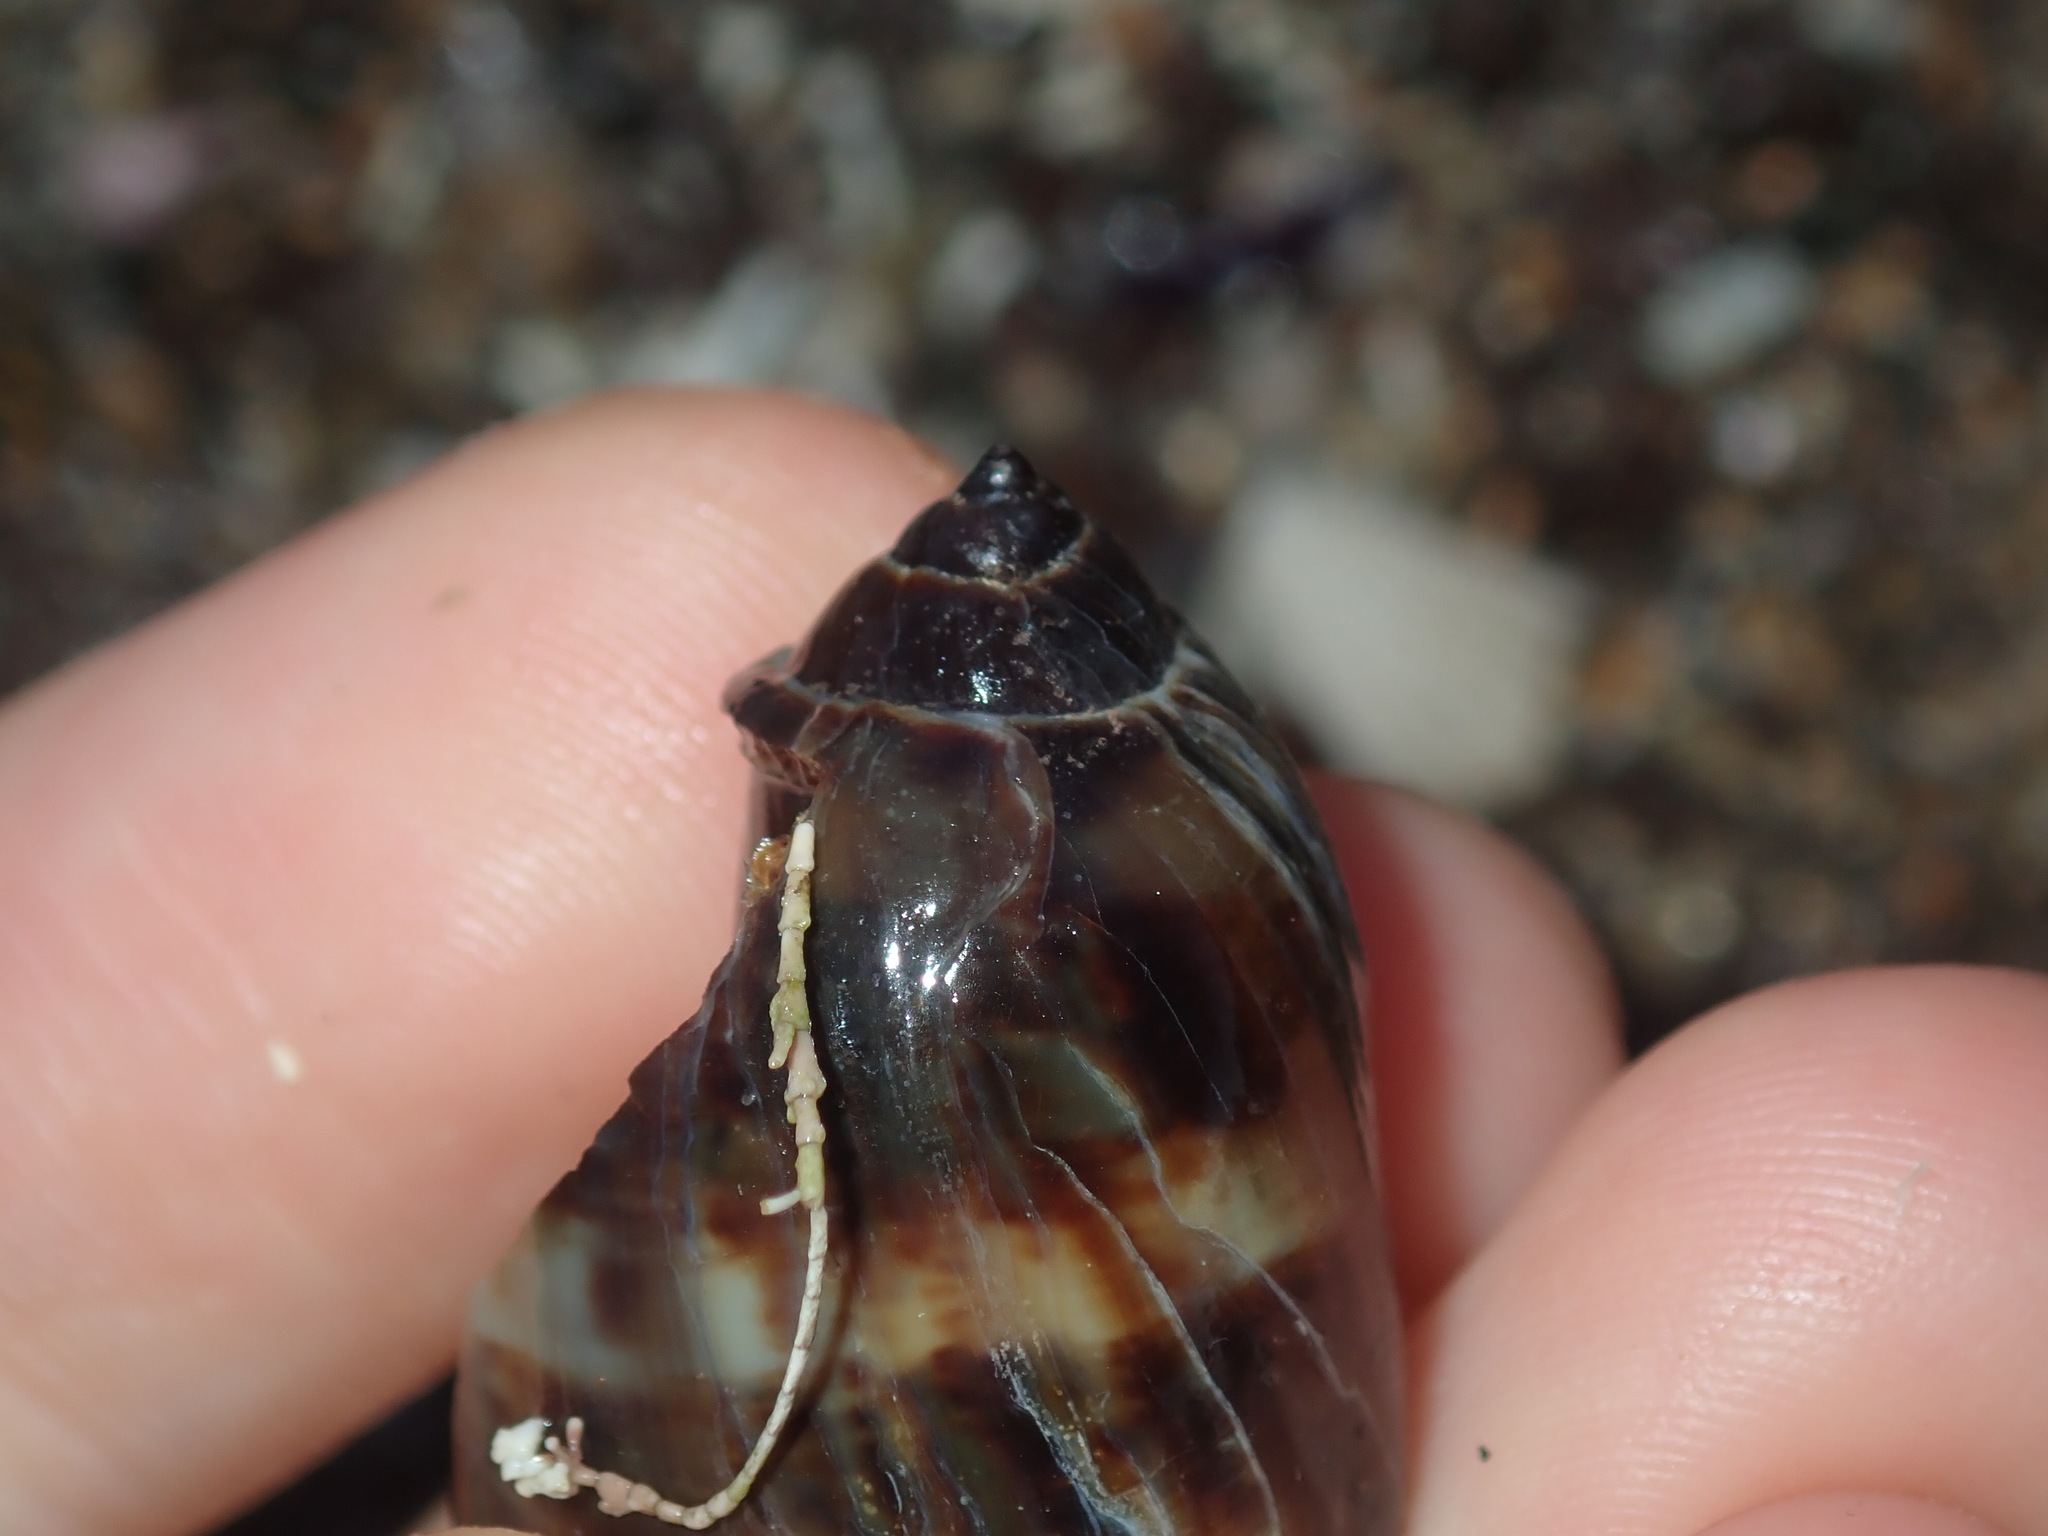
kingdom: Animalia
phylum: Mollusca
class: Gastropoda
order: Littorinimorpha
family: Cypraeidae
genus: Mauritia
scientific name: Mauritia
